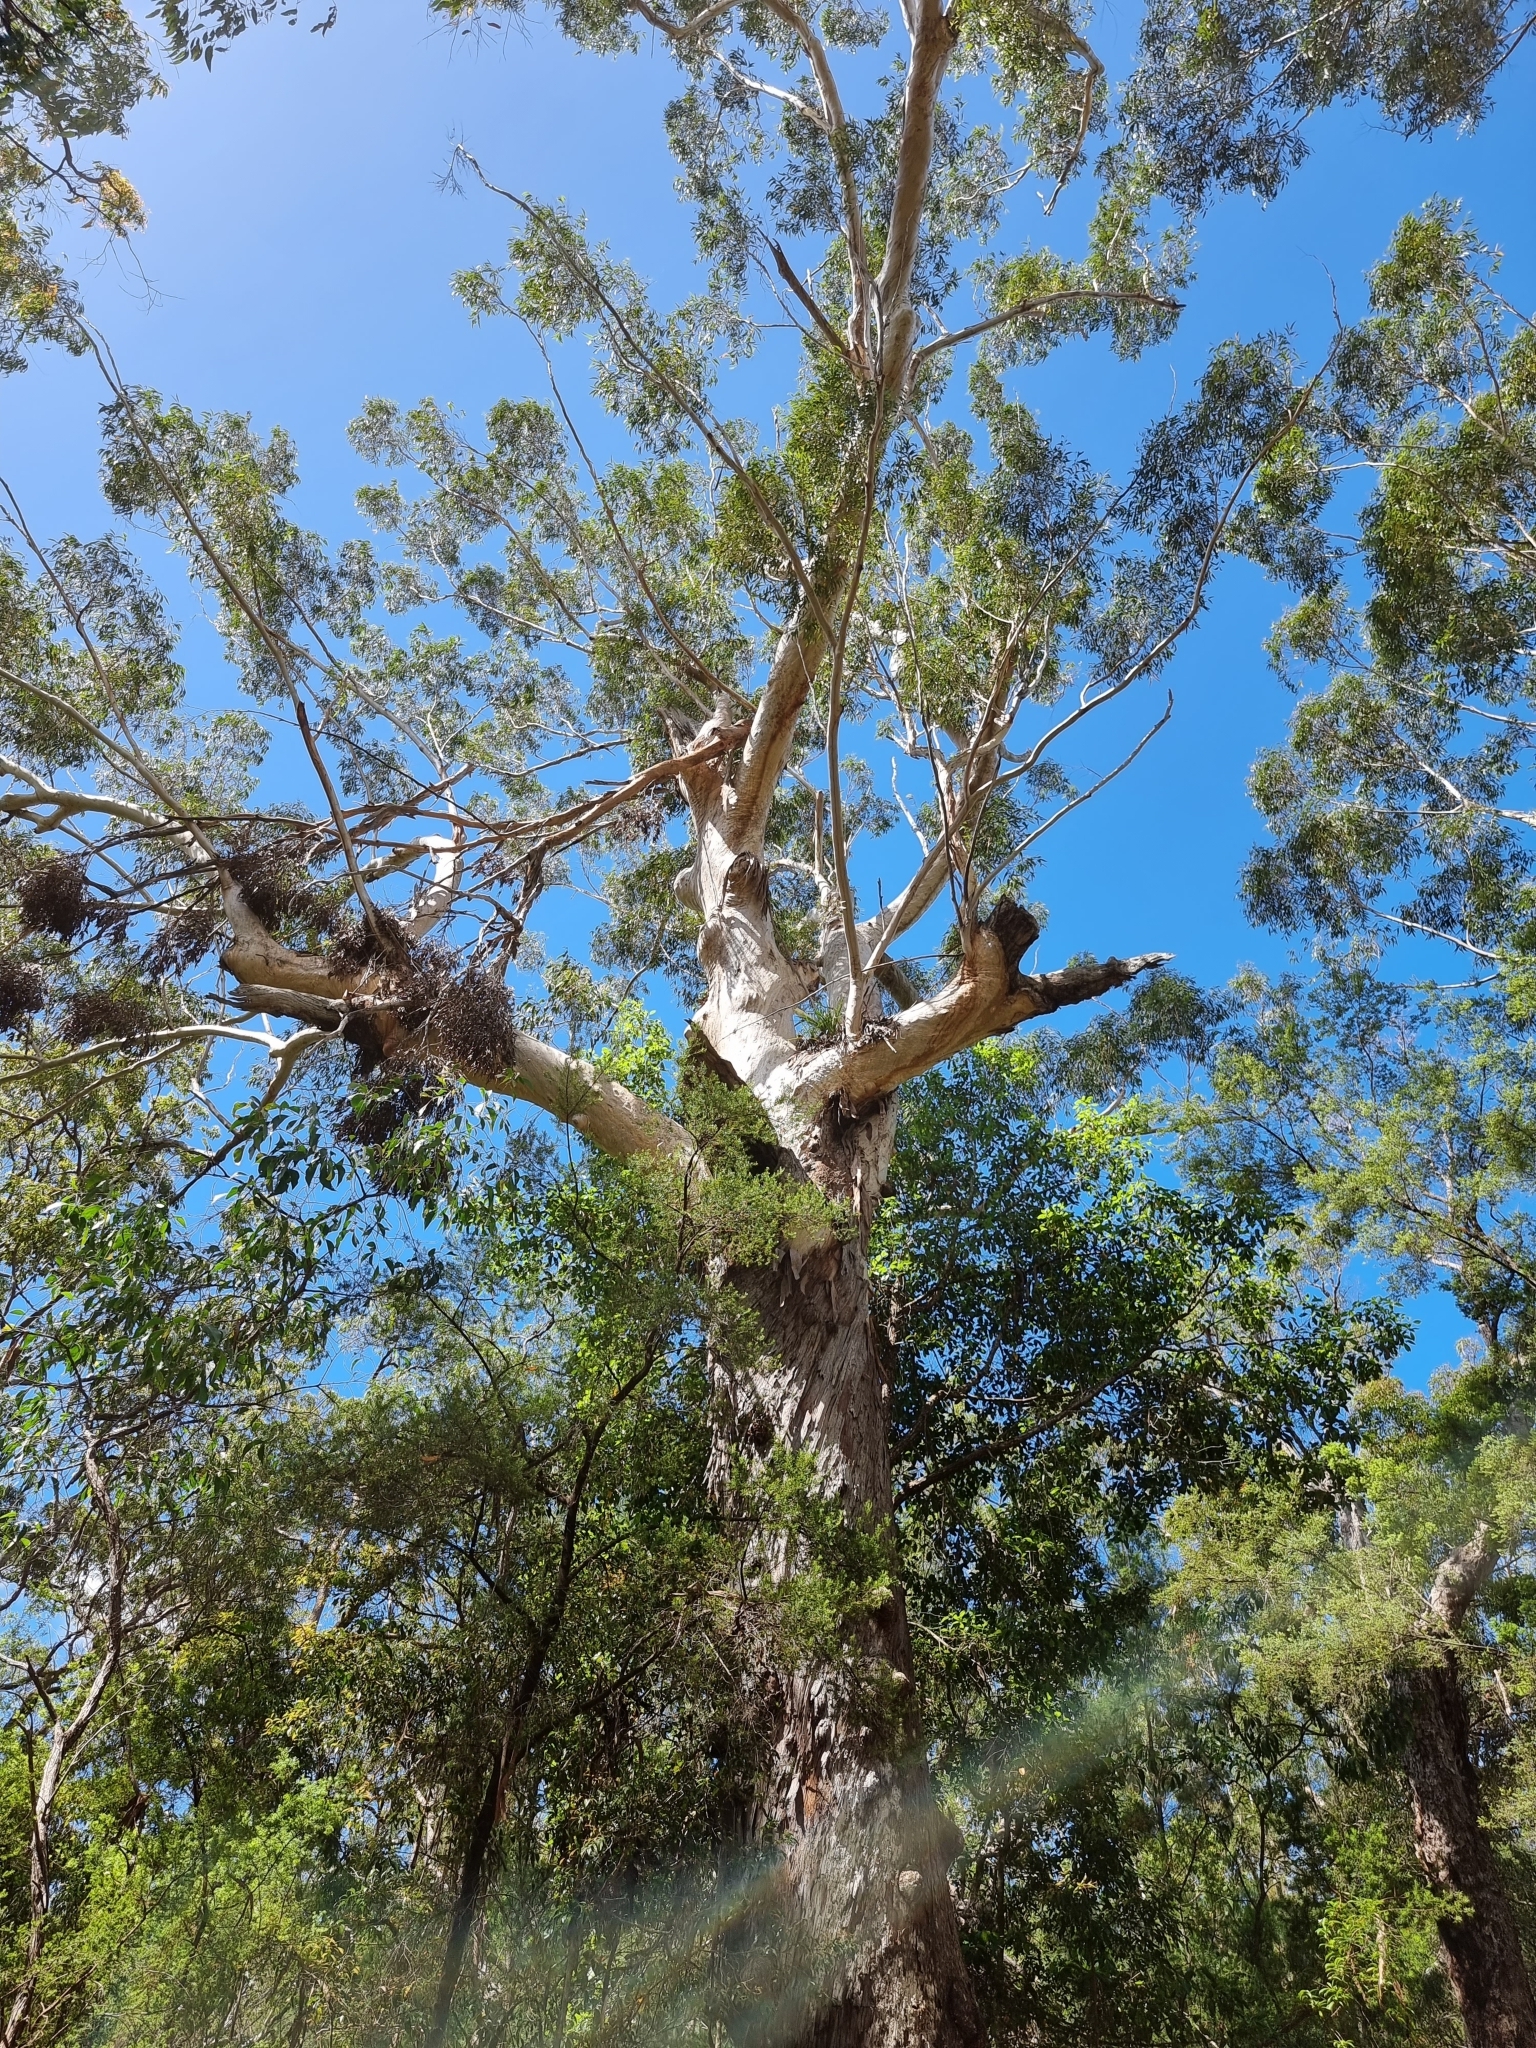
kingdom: Plantae
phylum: Tracheophyta
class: Liliopsida
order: Asparagales
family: Orchidaceae
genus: Cymbidium
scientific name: Cymbidium suave
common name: Snake orchid
